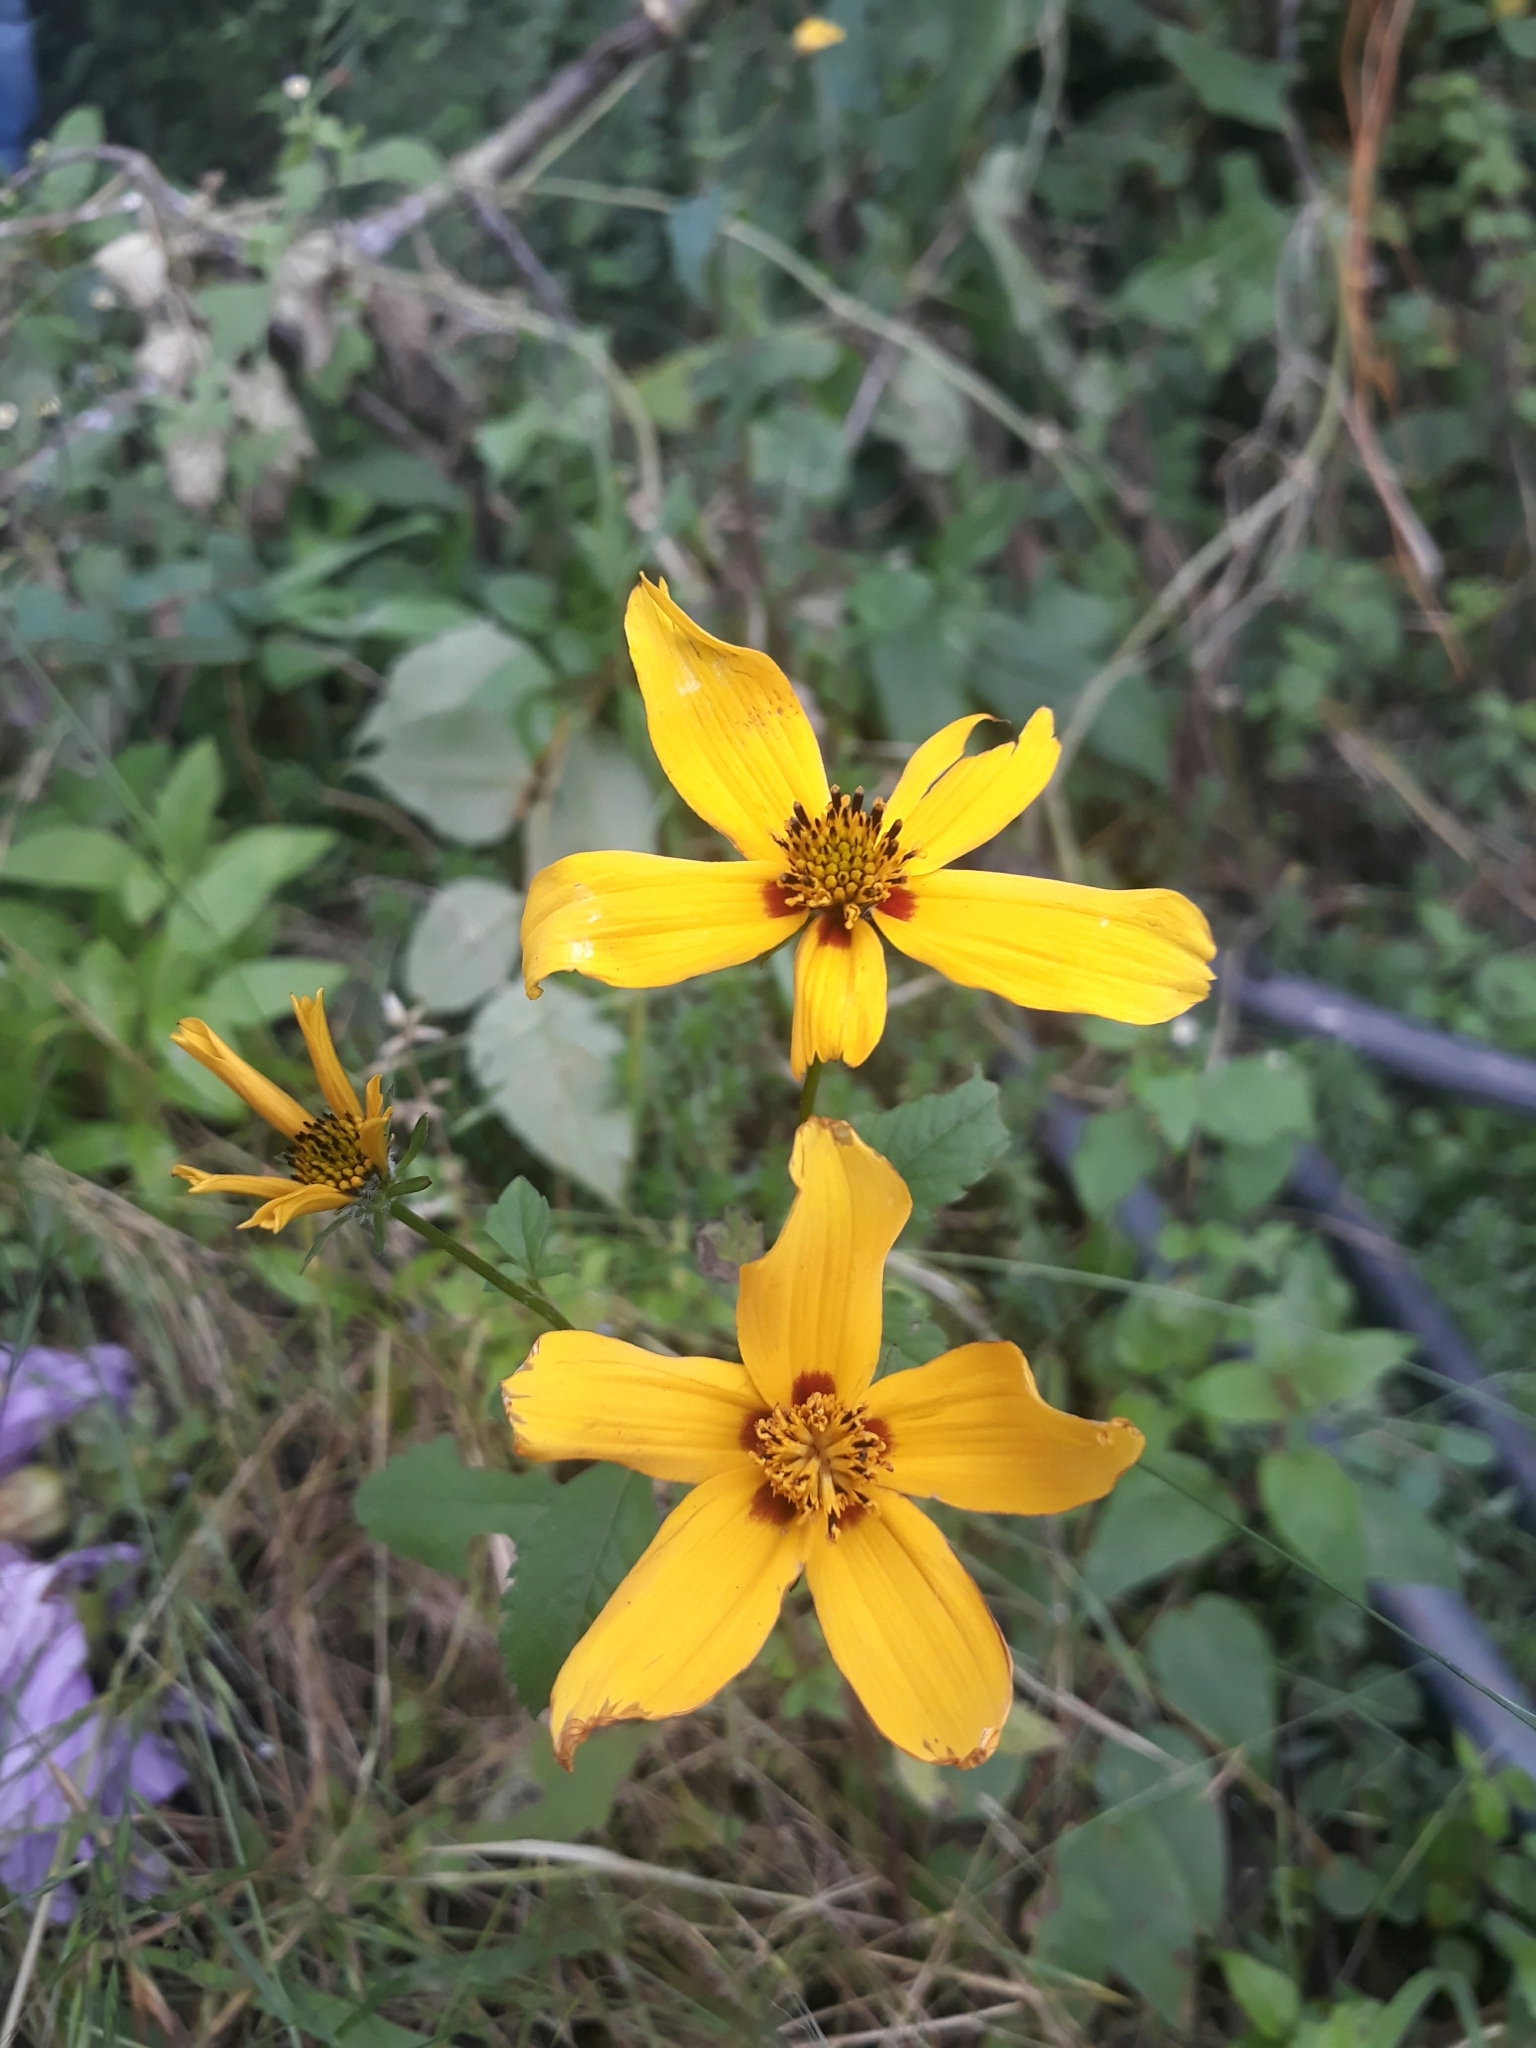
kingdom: Plantae
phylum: Tracheophyta
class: Magnoliopsida
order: Asterales
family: Asteraceae
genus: Bidens
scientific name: Bidens bicolor
